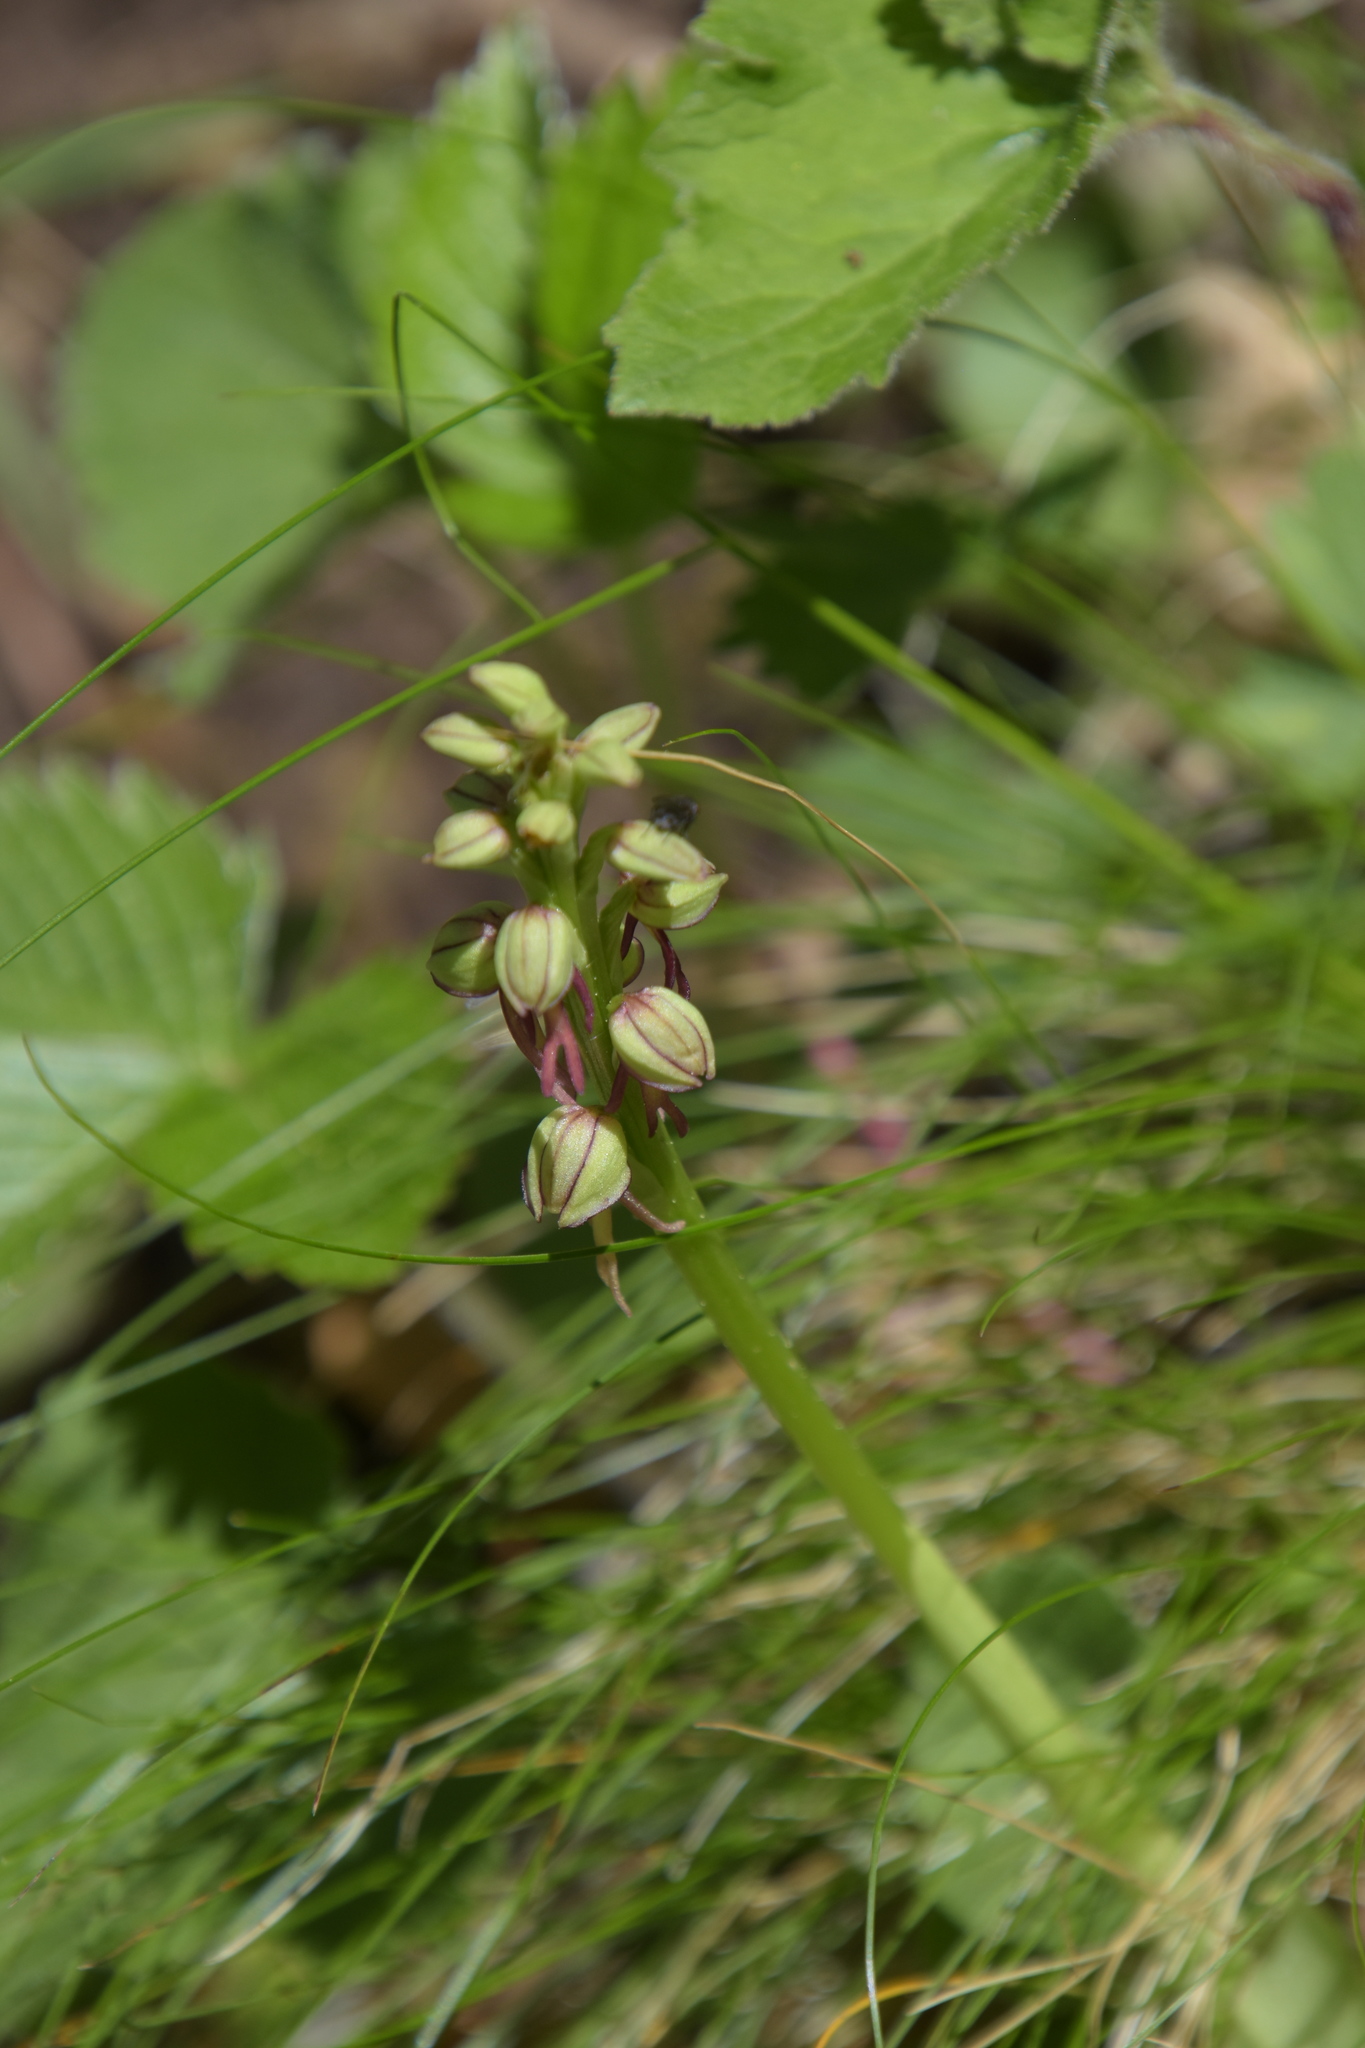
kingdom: Plantae
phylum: Tracheophyta
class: Liliopsida
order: Asparagales
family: Orchidaceae
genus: Orchis
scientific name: Orchis anthropophora
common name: Man orchid
